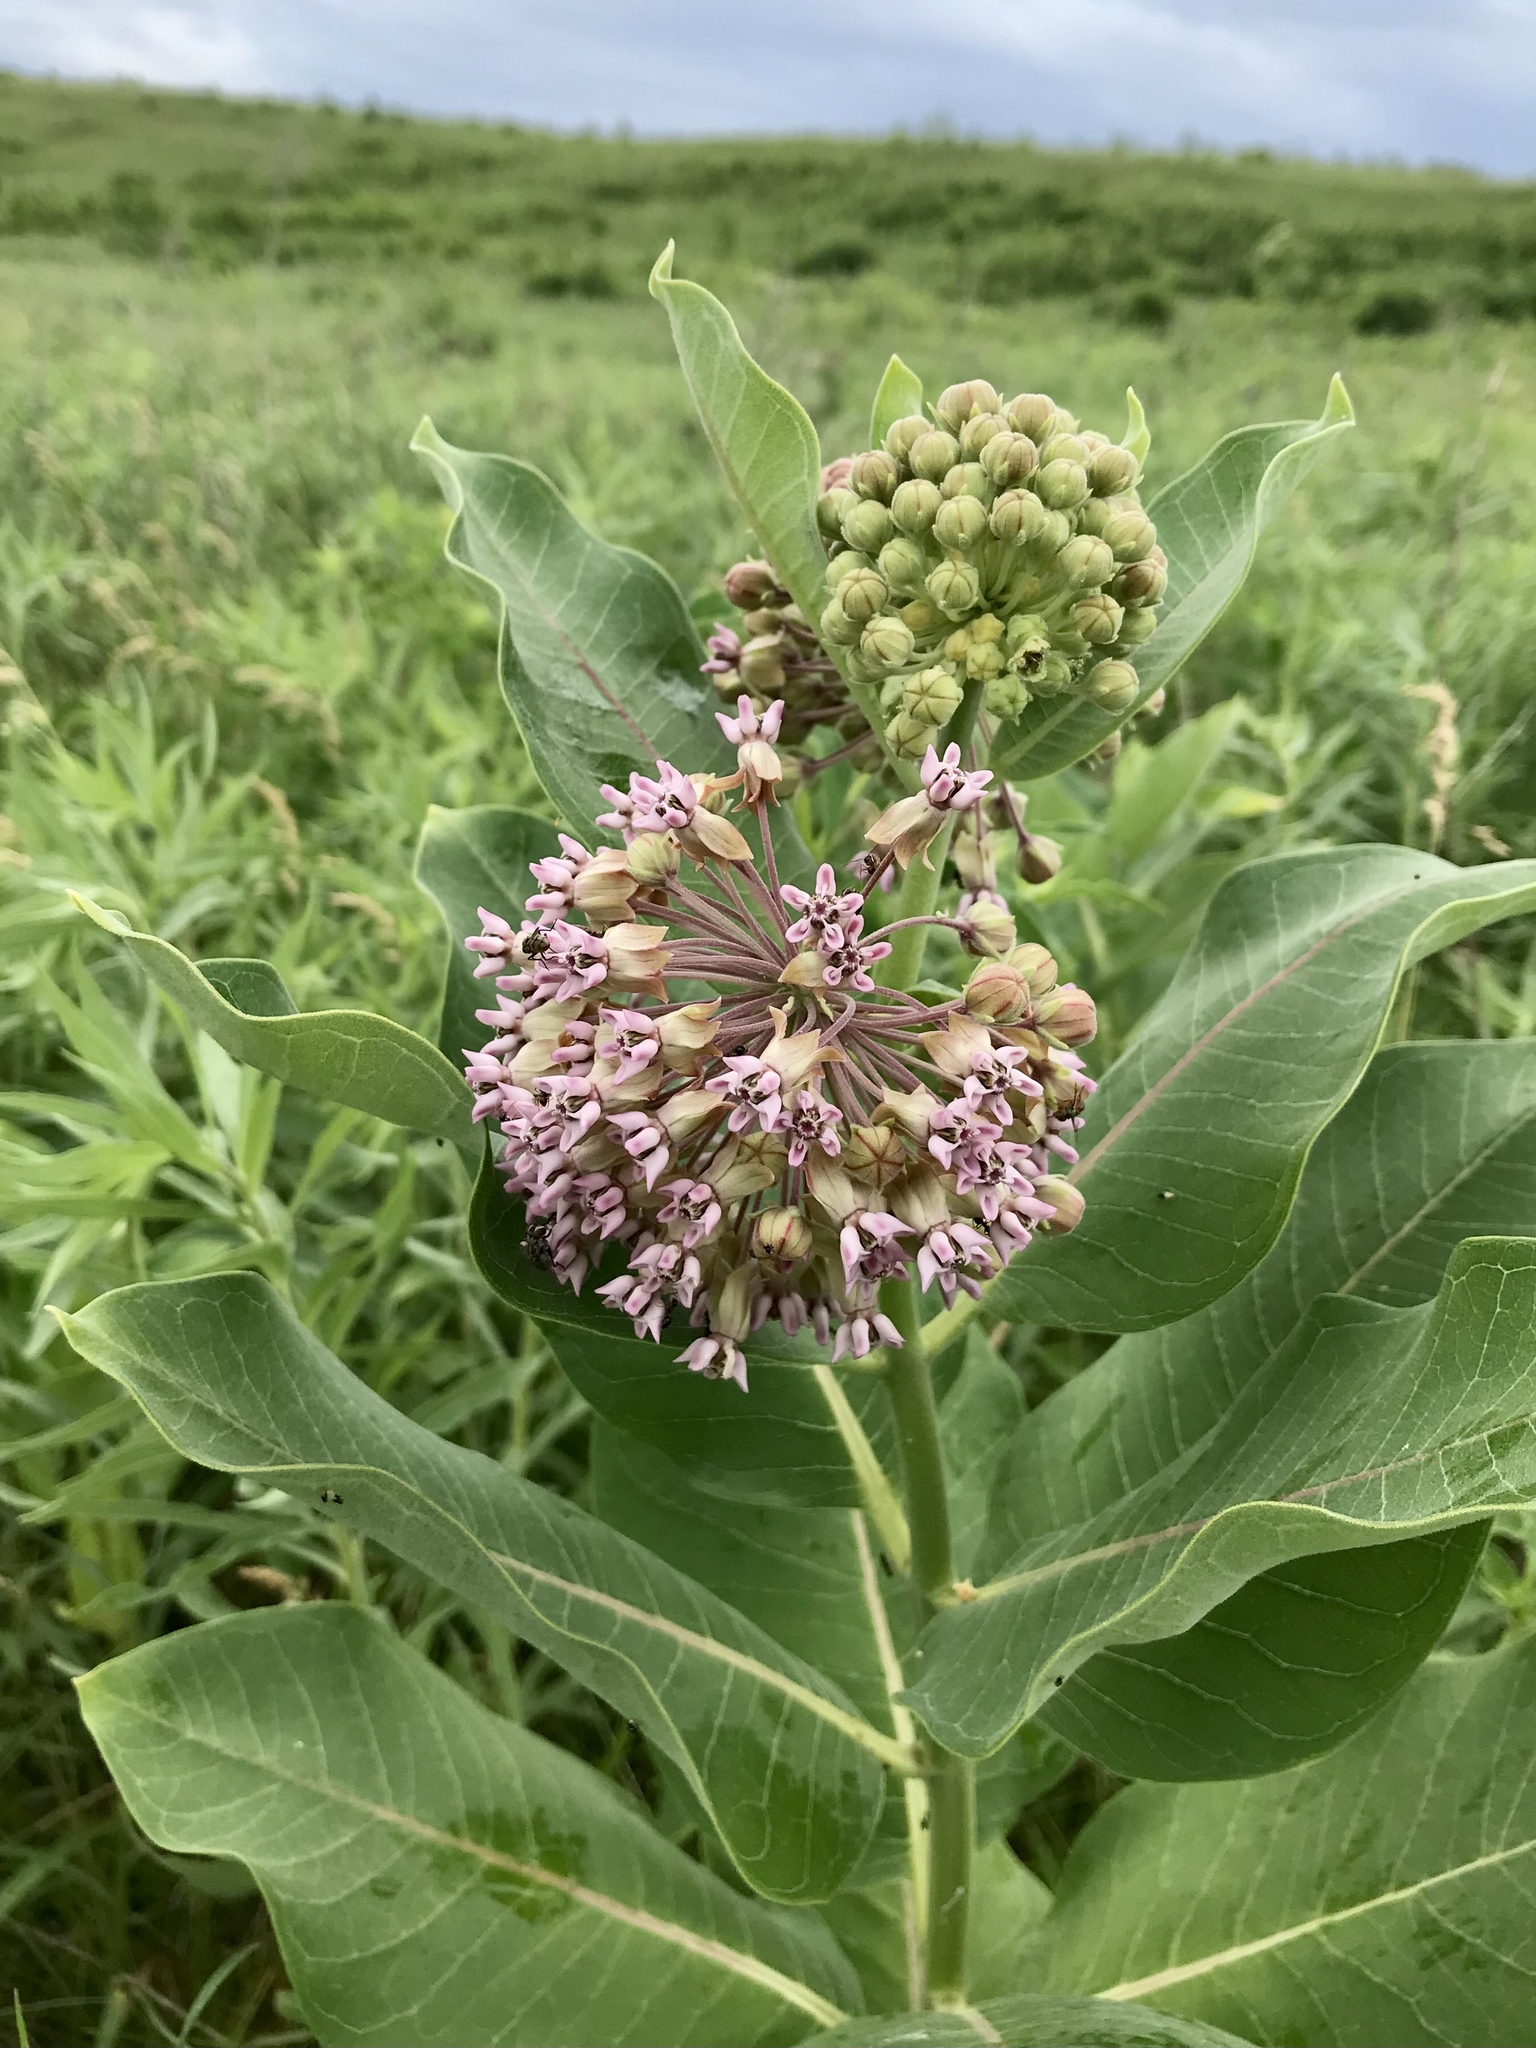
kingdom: Plantae
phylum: Tracheophyta
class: Magnoliopsida
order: Gentianales
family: Apocynaceae
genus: Asclepias
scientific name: Asclepias syriaca
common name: Common milkweed
